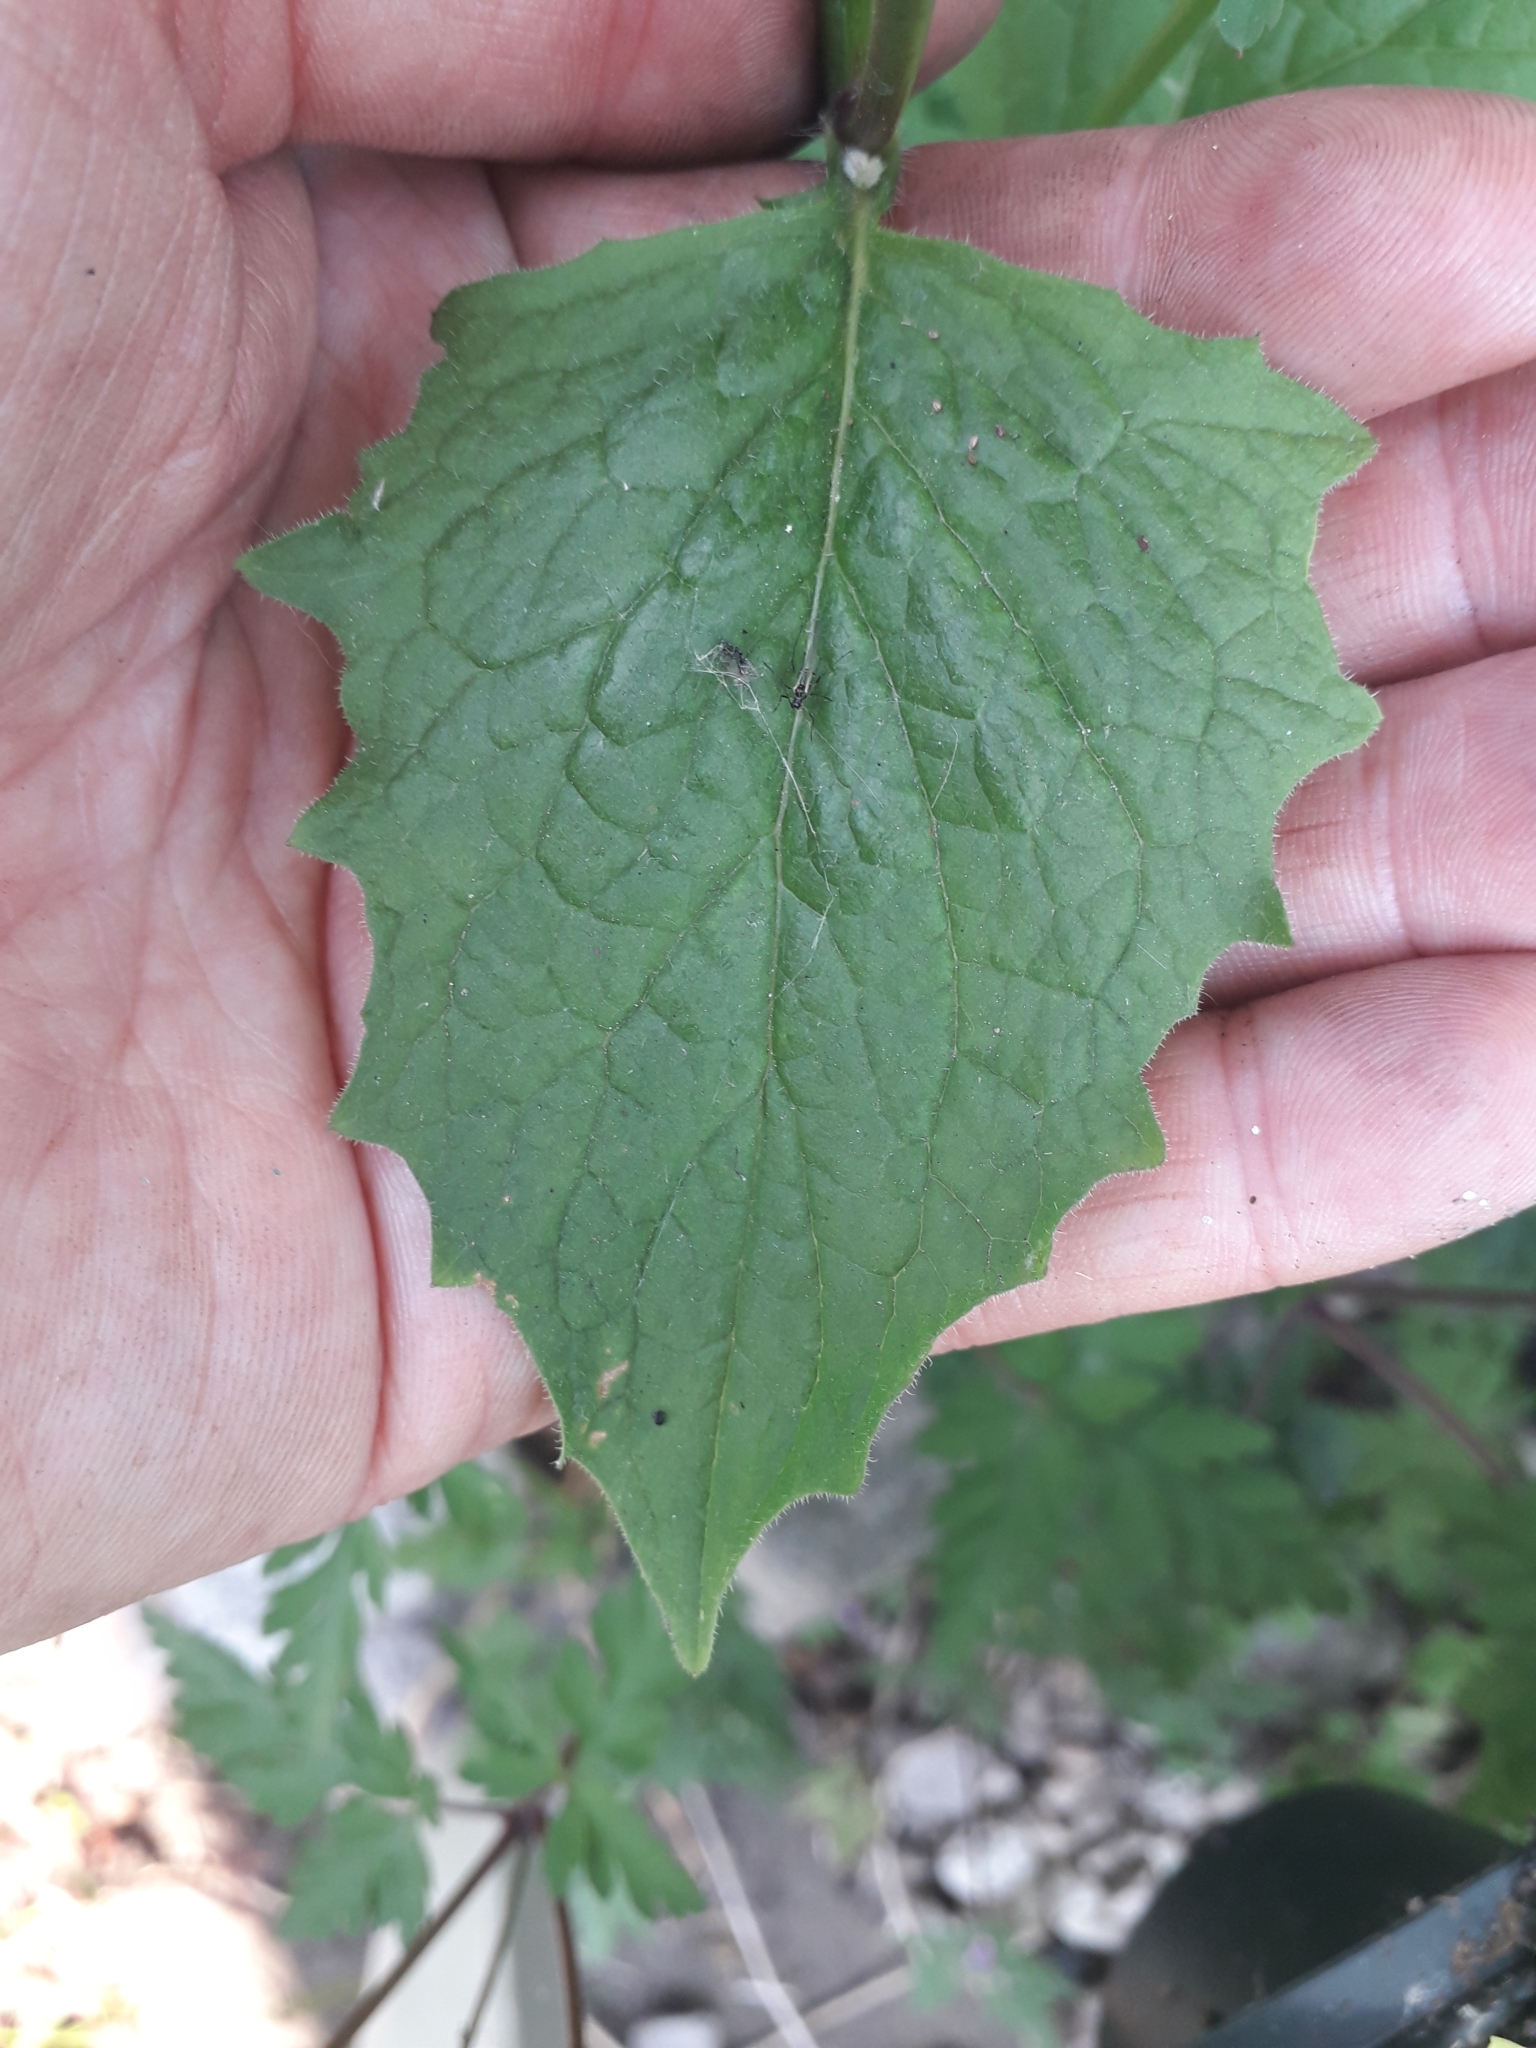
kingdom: Plantae
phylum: Tracheophyta
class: Magnoliopsida
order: Asterales
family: Asteraceae
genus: Lapsana
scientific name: Lapsana communis
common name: Nipplewort
